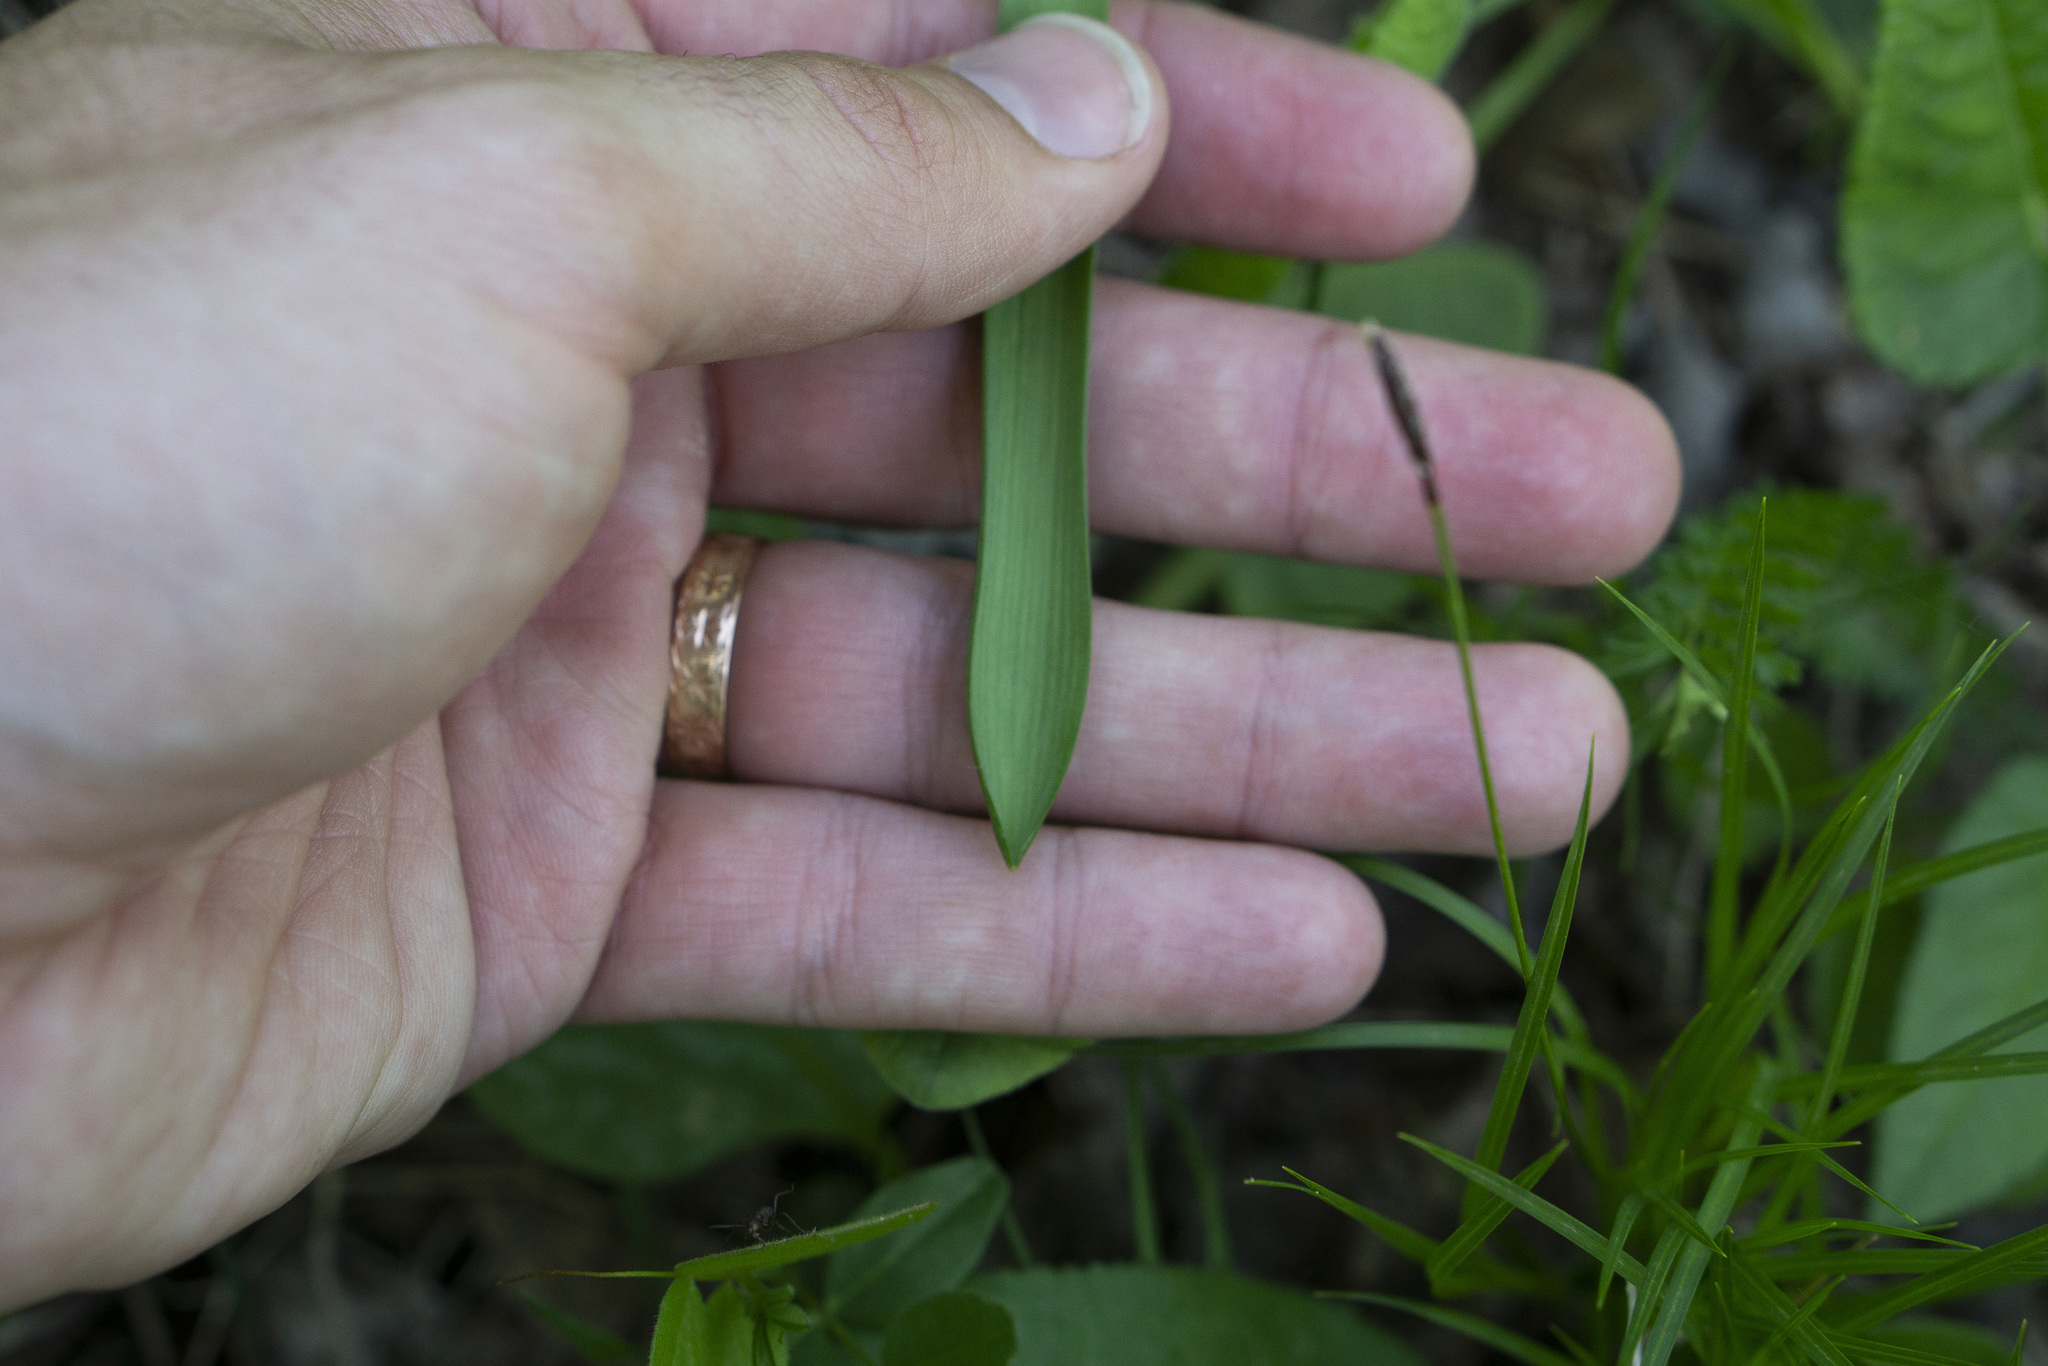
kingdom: Plantae
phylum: Tracheophyta
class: Liliopsida
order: Asparagales
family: Asparagaceae
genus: Muscari
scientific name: Muscari botryoides
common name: Compact grape-hyacinth
